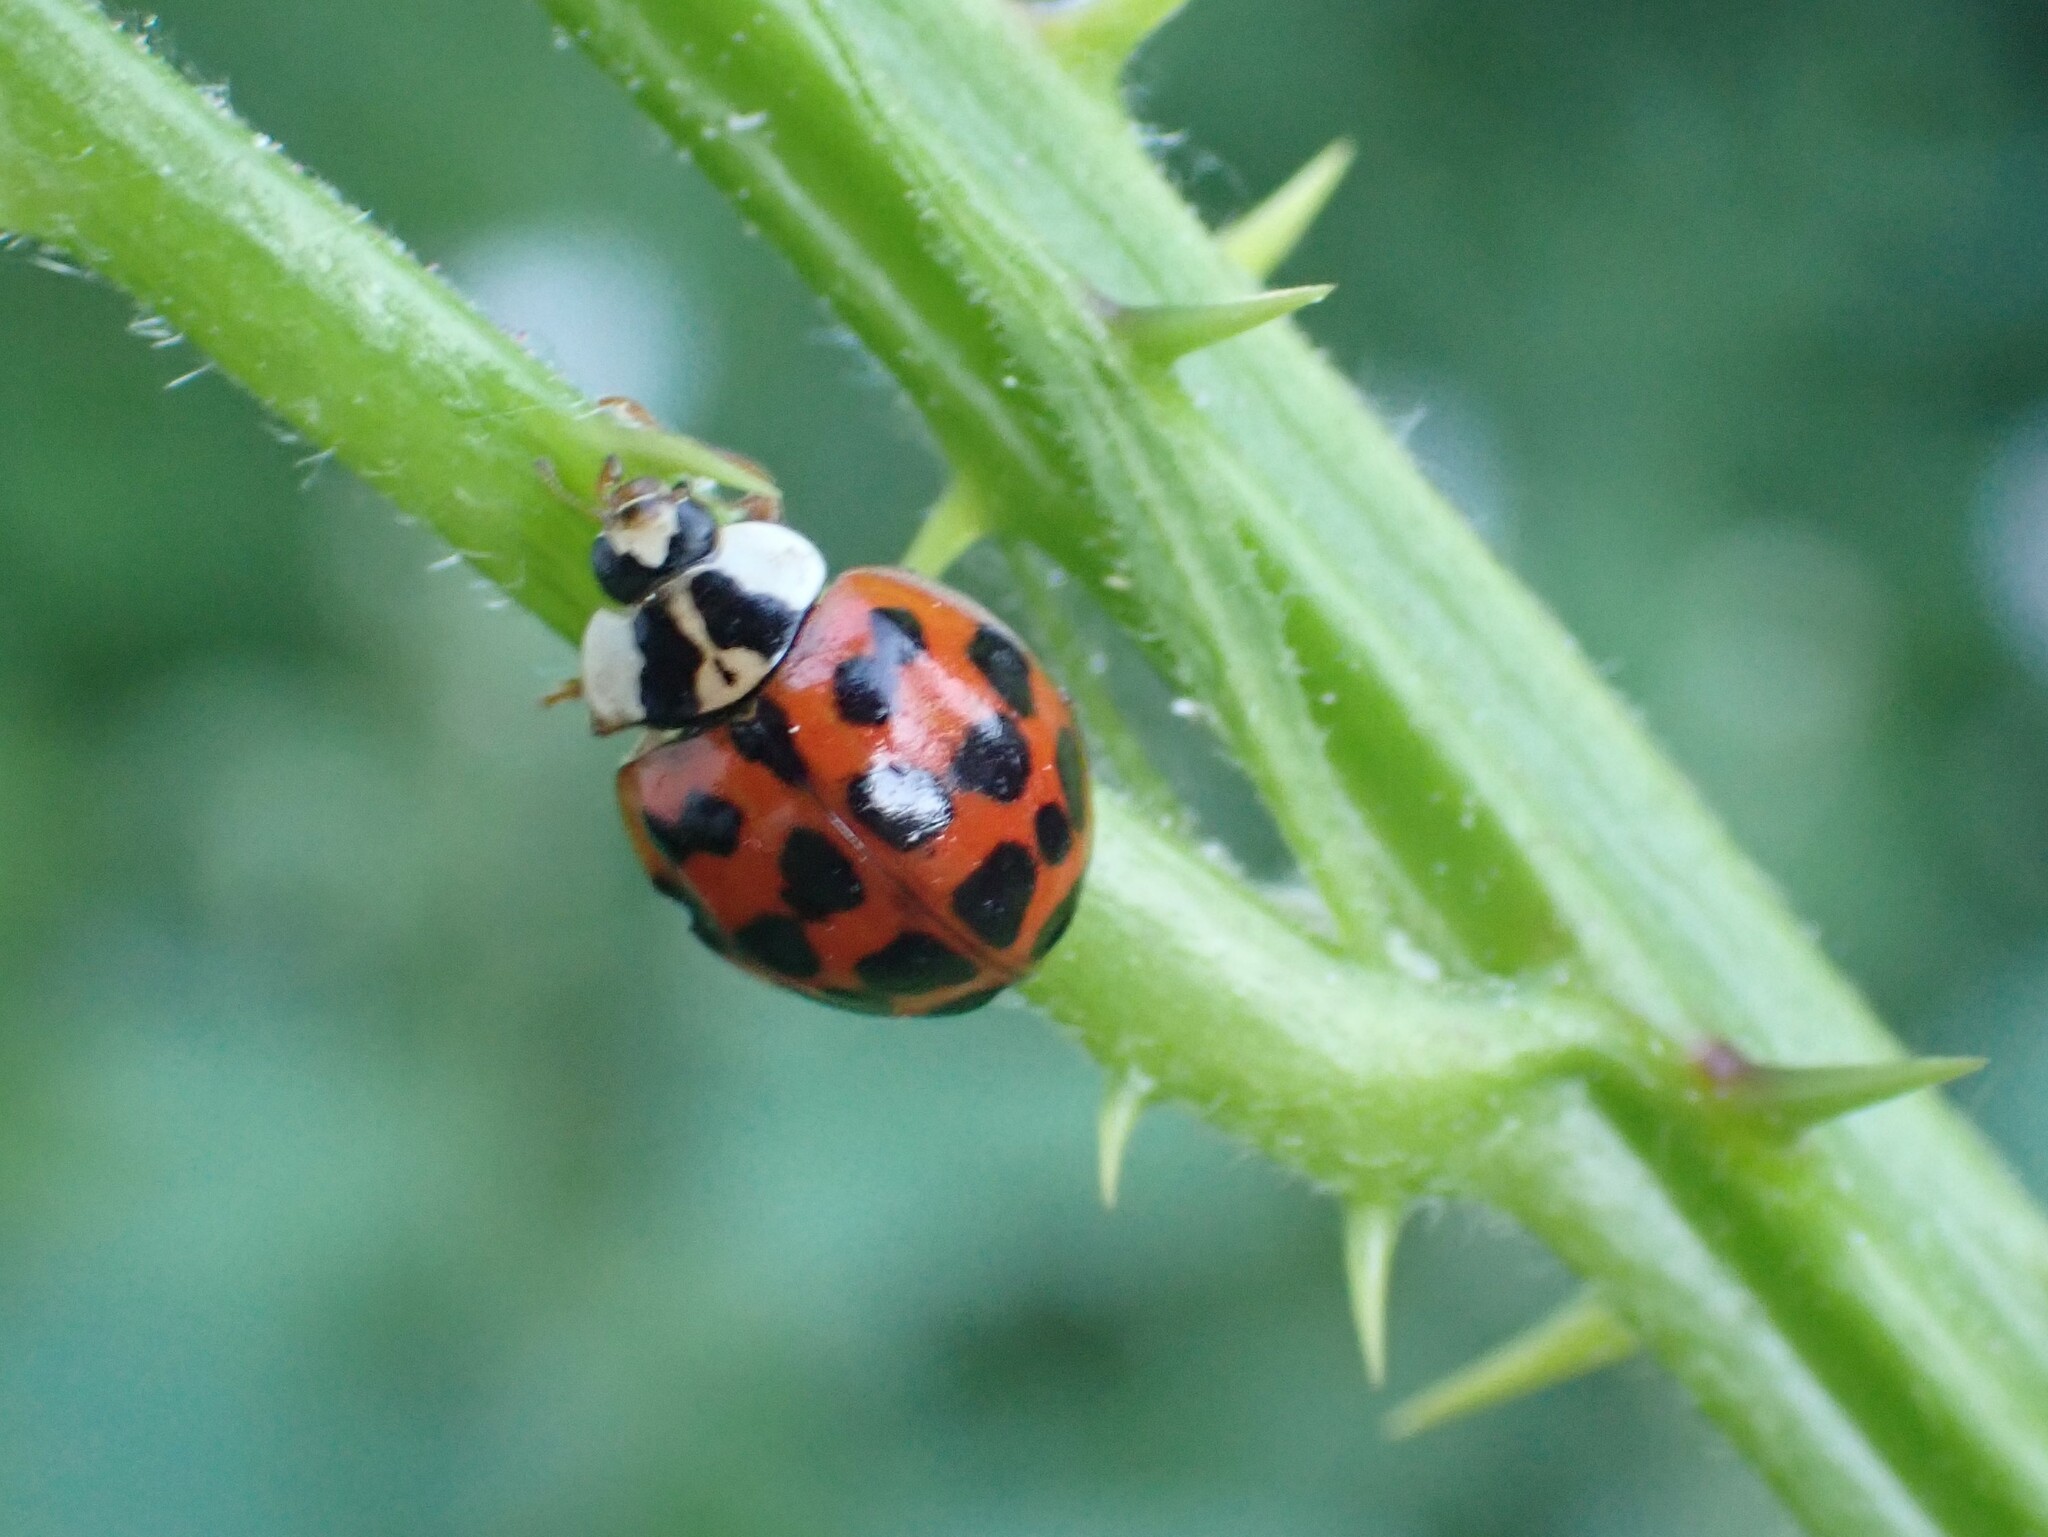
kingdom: Animalia
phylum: Arthropoda
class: Insecta
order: Coleoptera
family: Coccinellidae
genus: Harmonia
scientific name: Harmonia axyridis
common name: Harlequin ladybird
